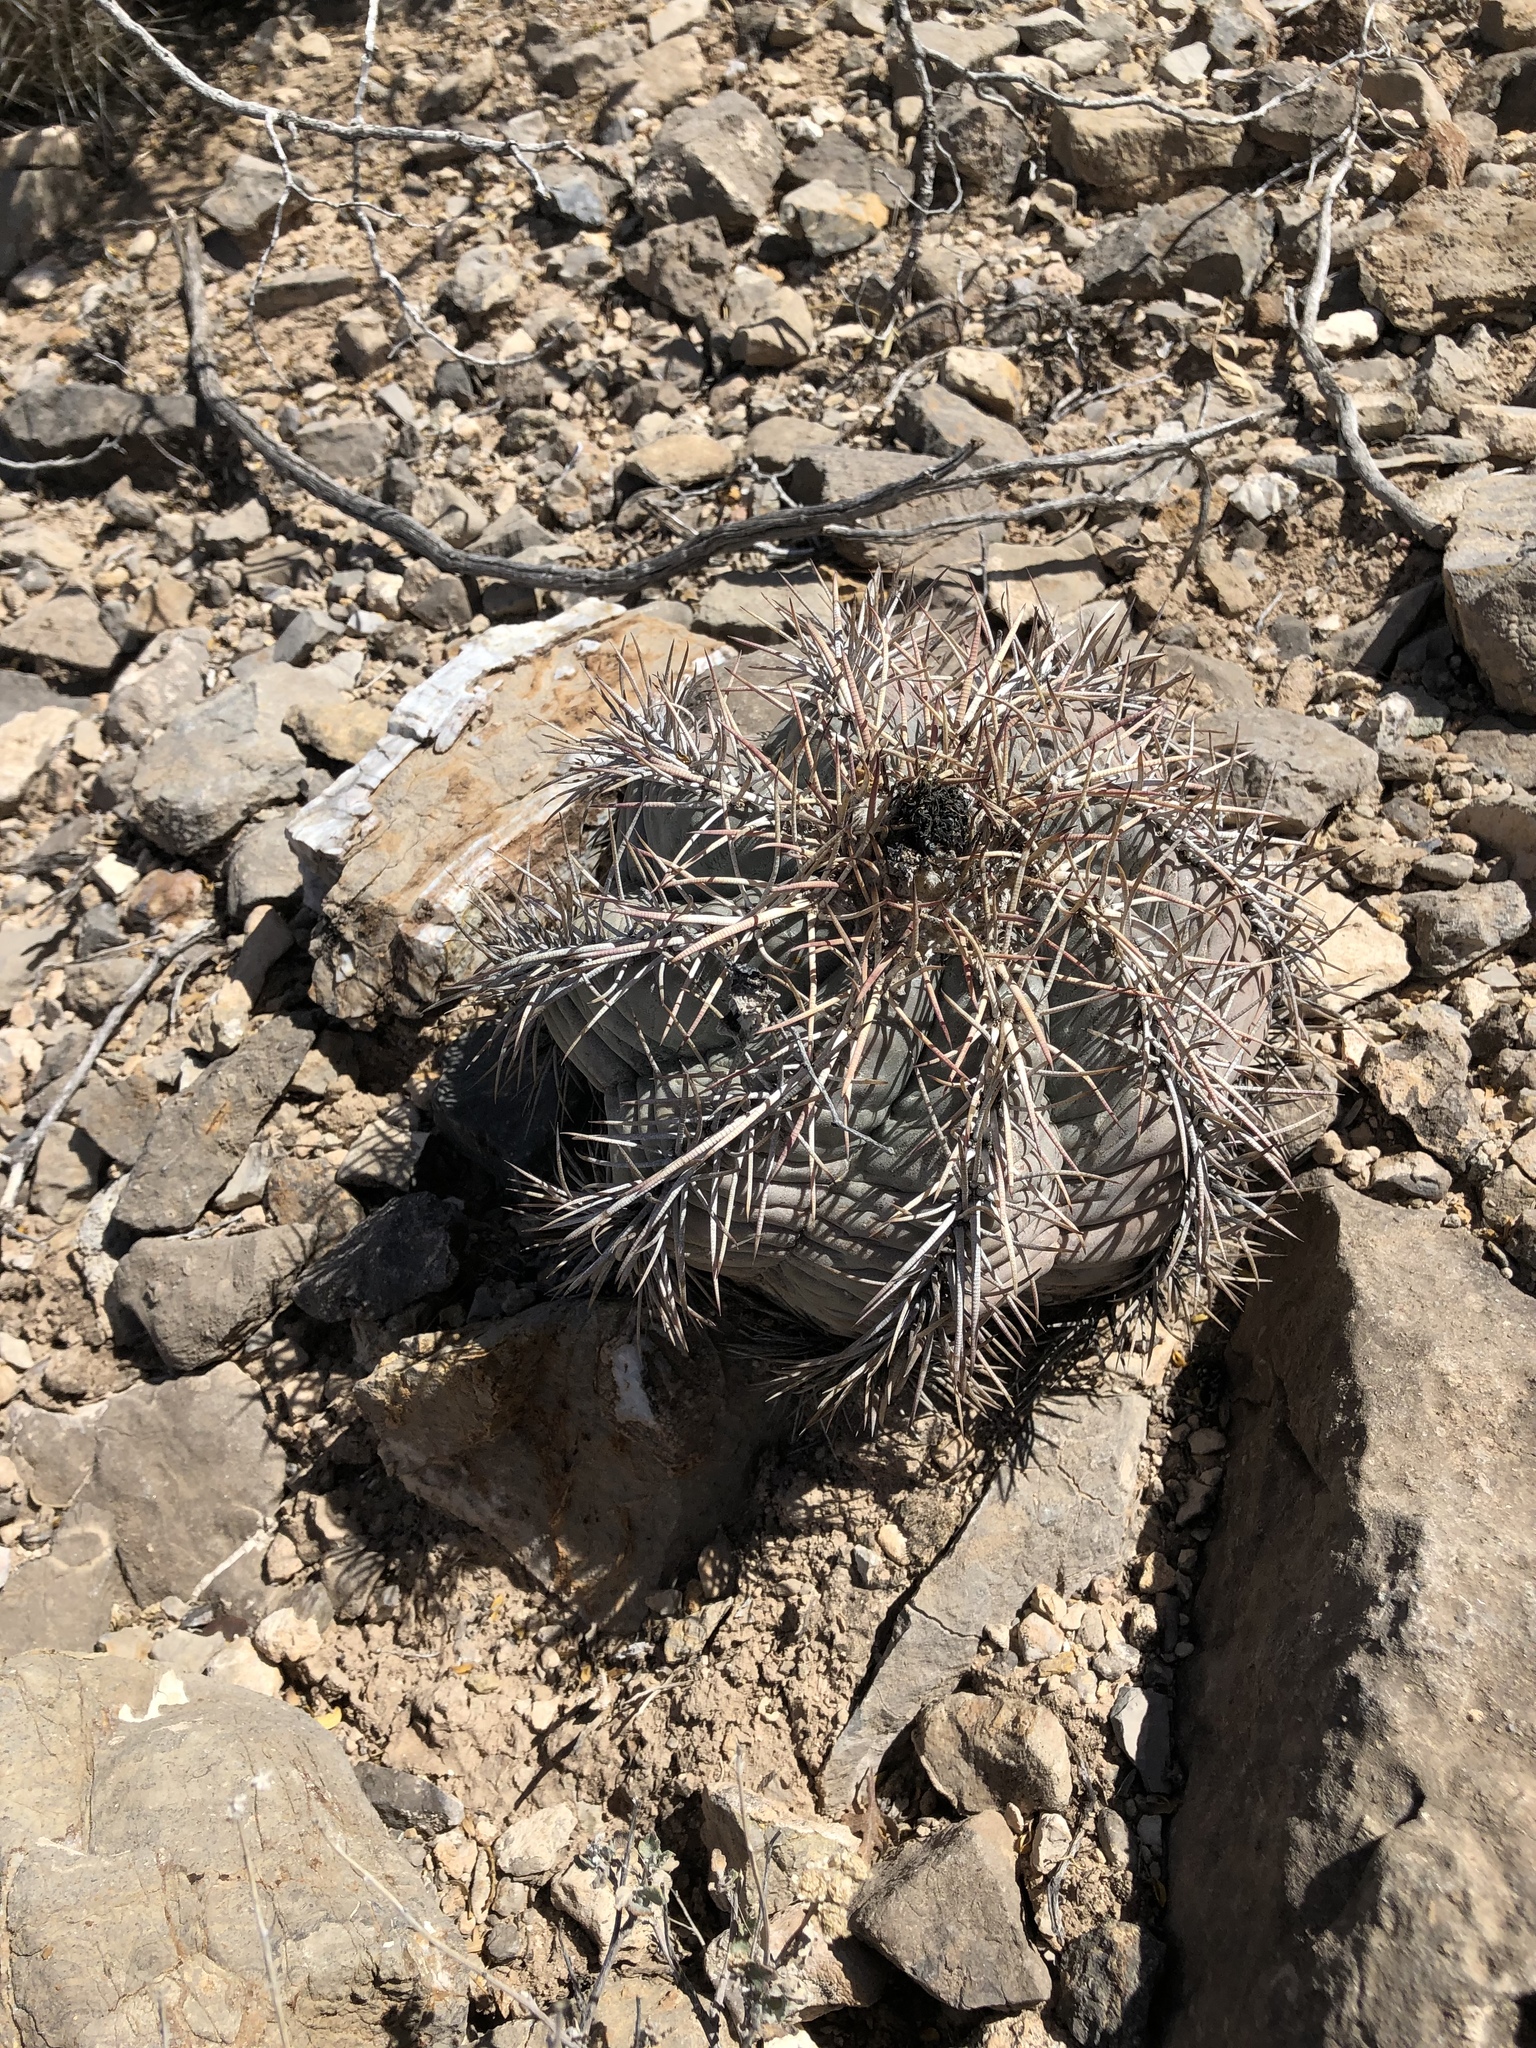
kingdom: Plantae
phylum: Tracheophyta
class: Magnoliopsida
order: Caryophyllales
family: Cactaceae
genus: Echinocactus
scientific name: Echinocactus horizonthalonius
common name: Devilshead
